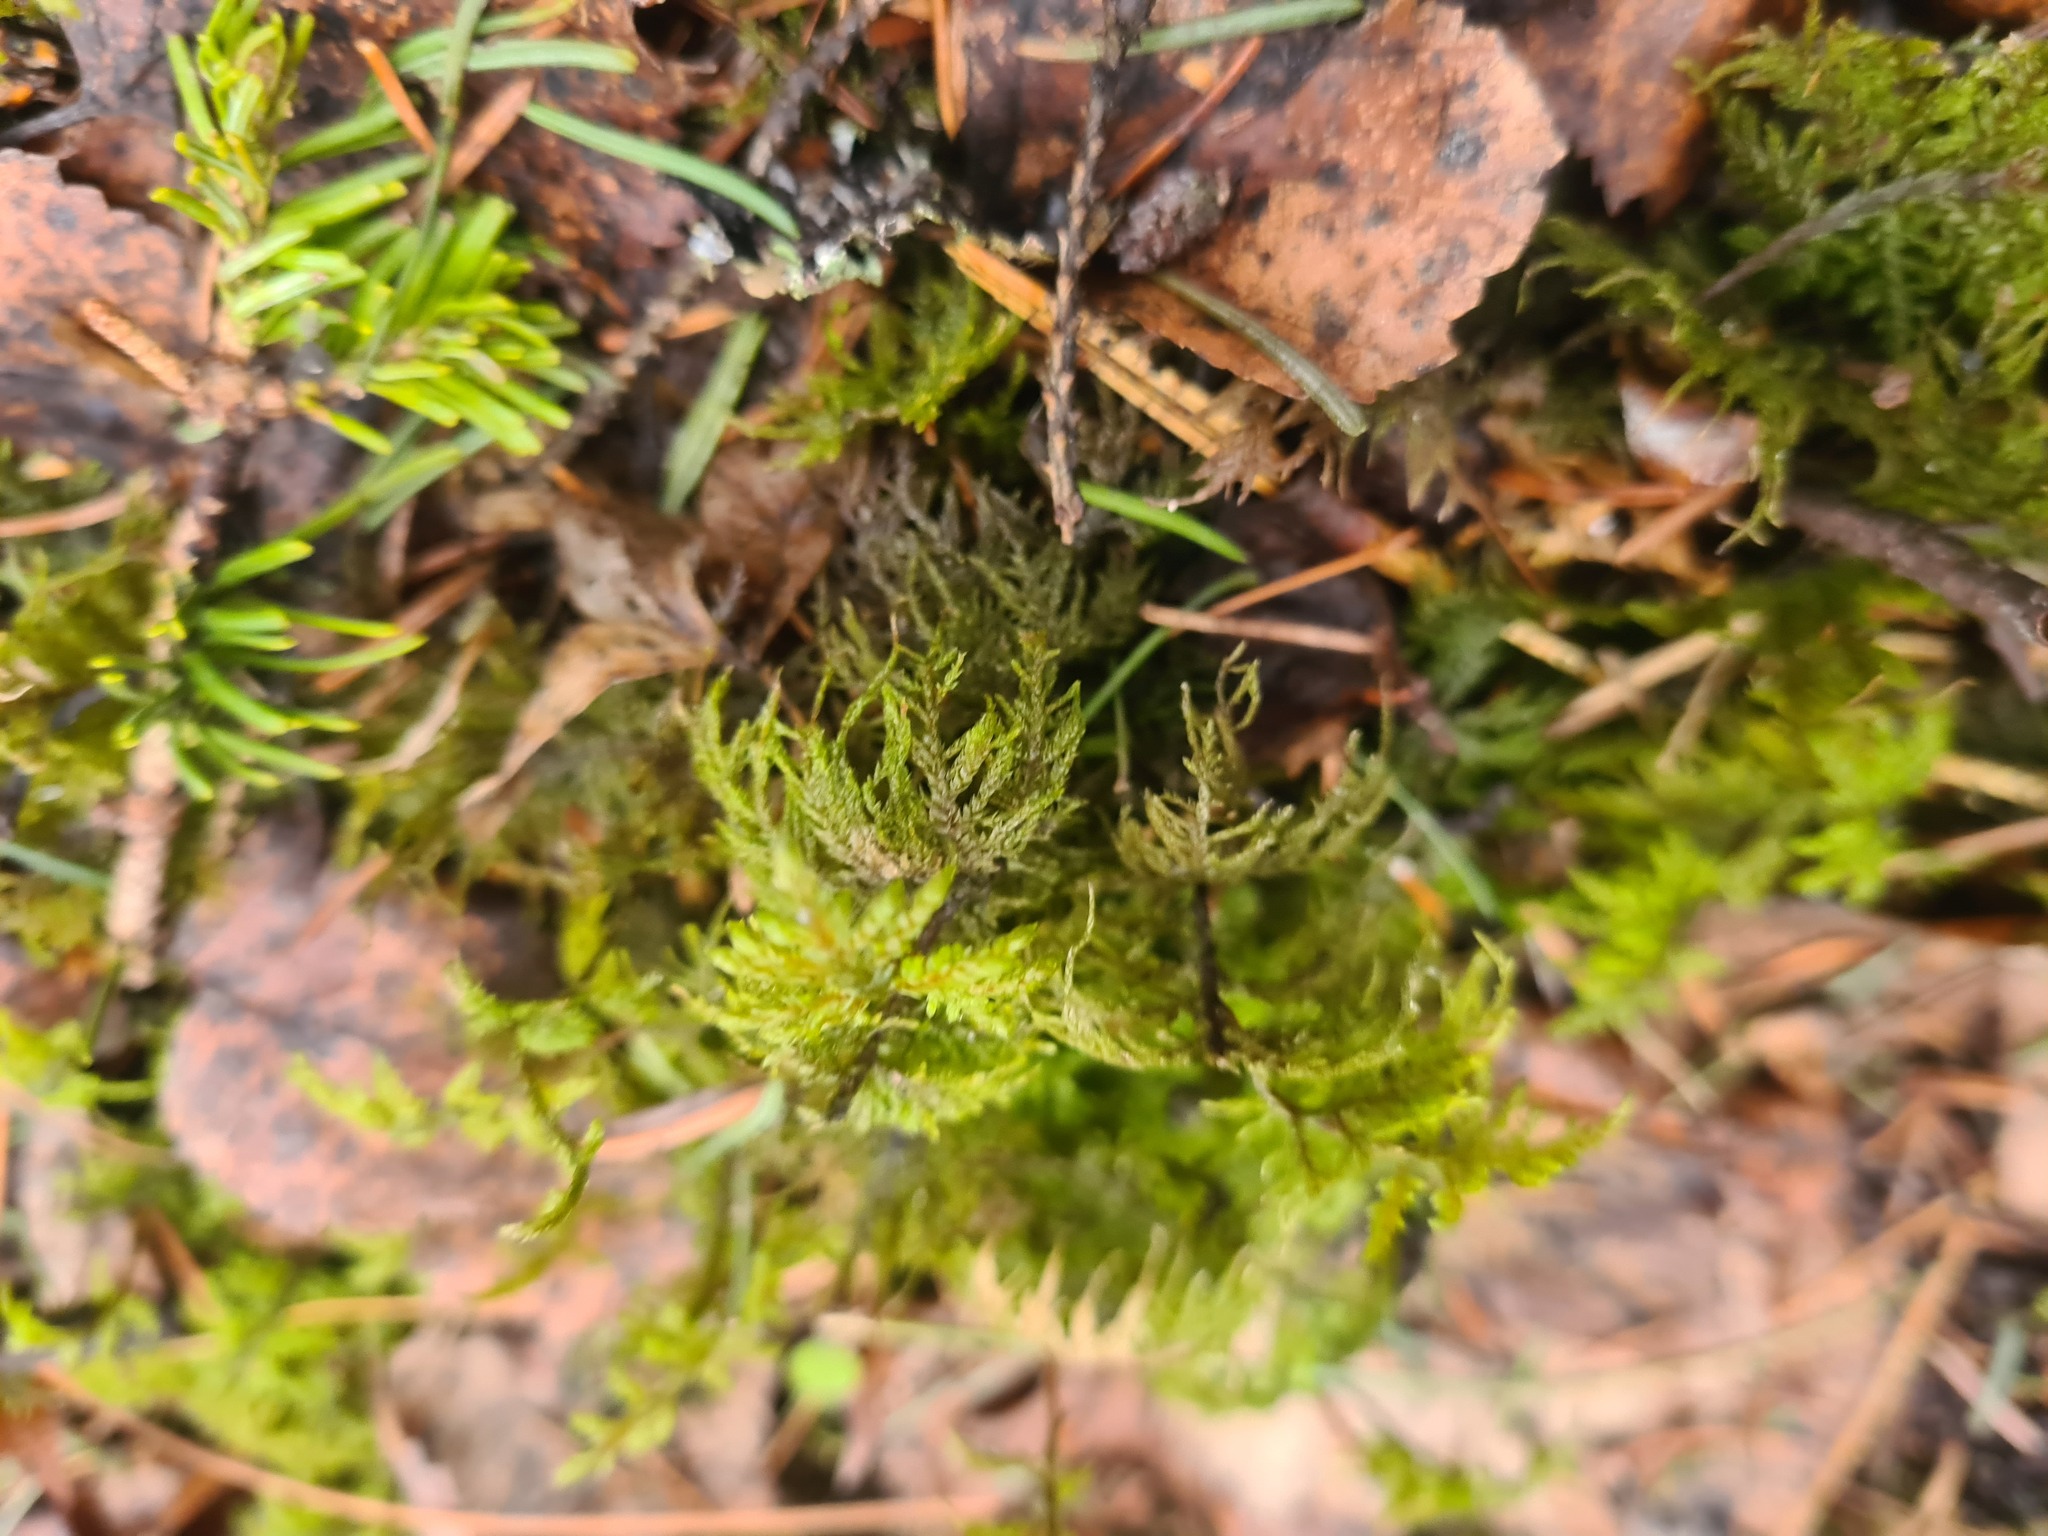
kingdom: Plantae
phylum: Bryophyta
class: Bryopsida
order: Hypnales
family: Hylocomiaceae
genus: Hylocomium
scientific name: Hylocomium splendens
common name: Stairstep moss
